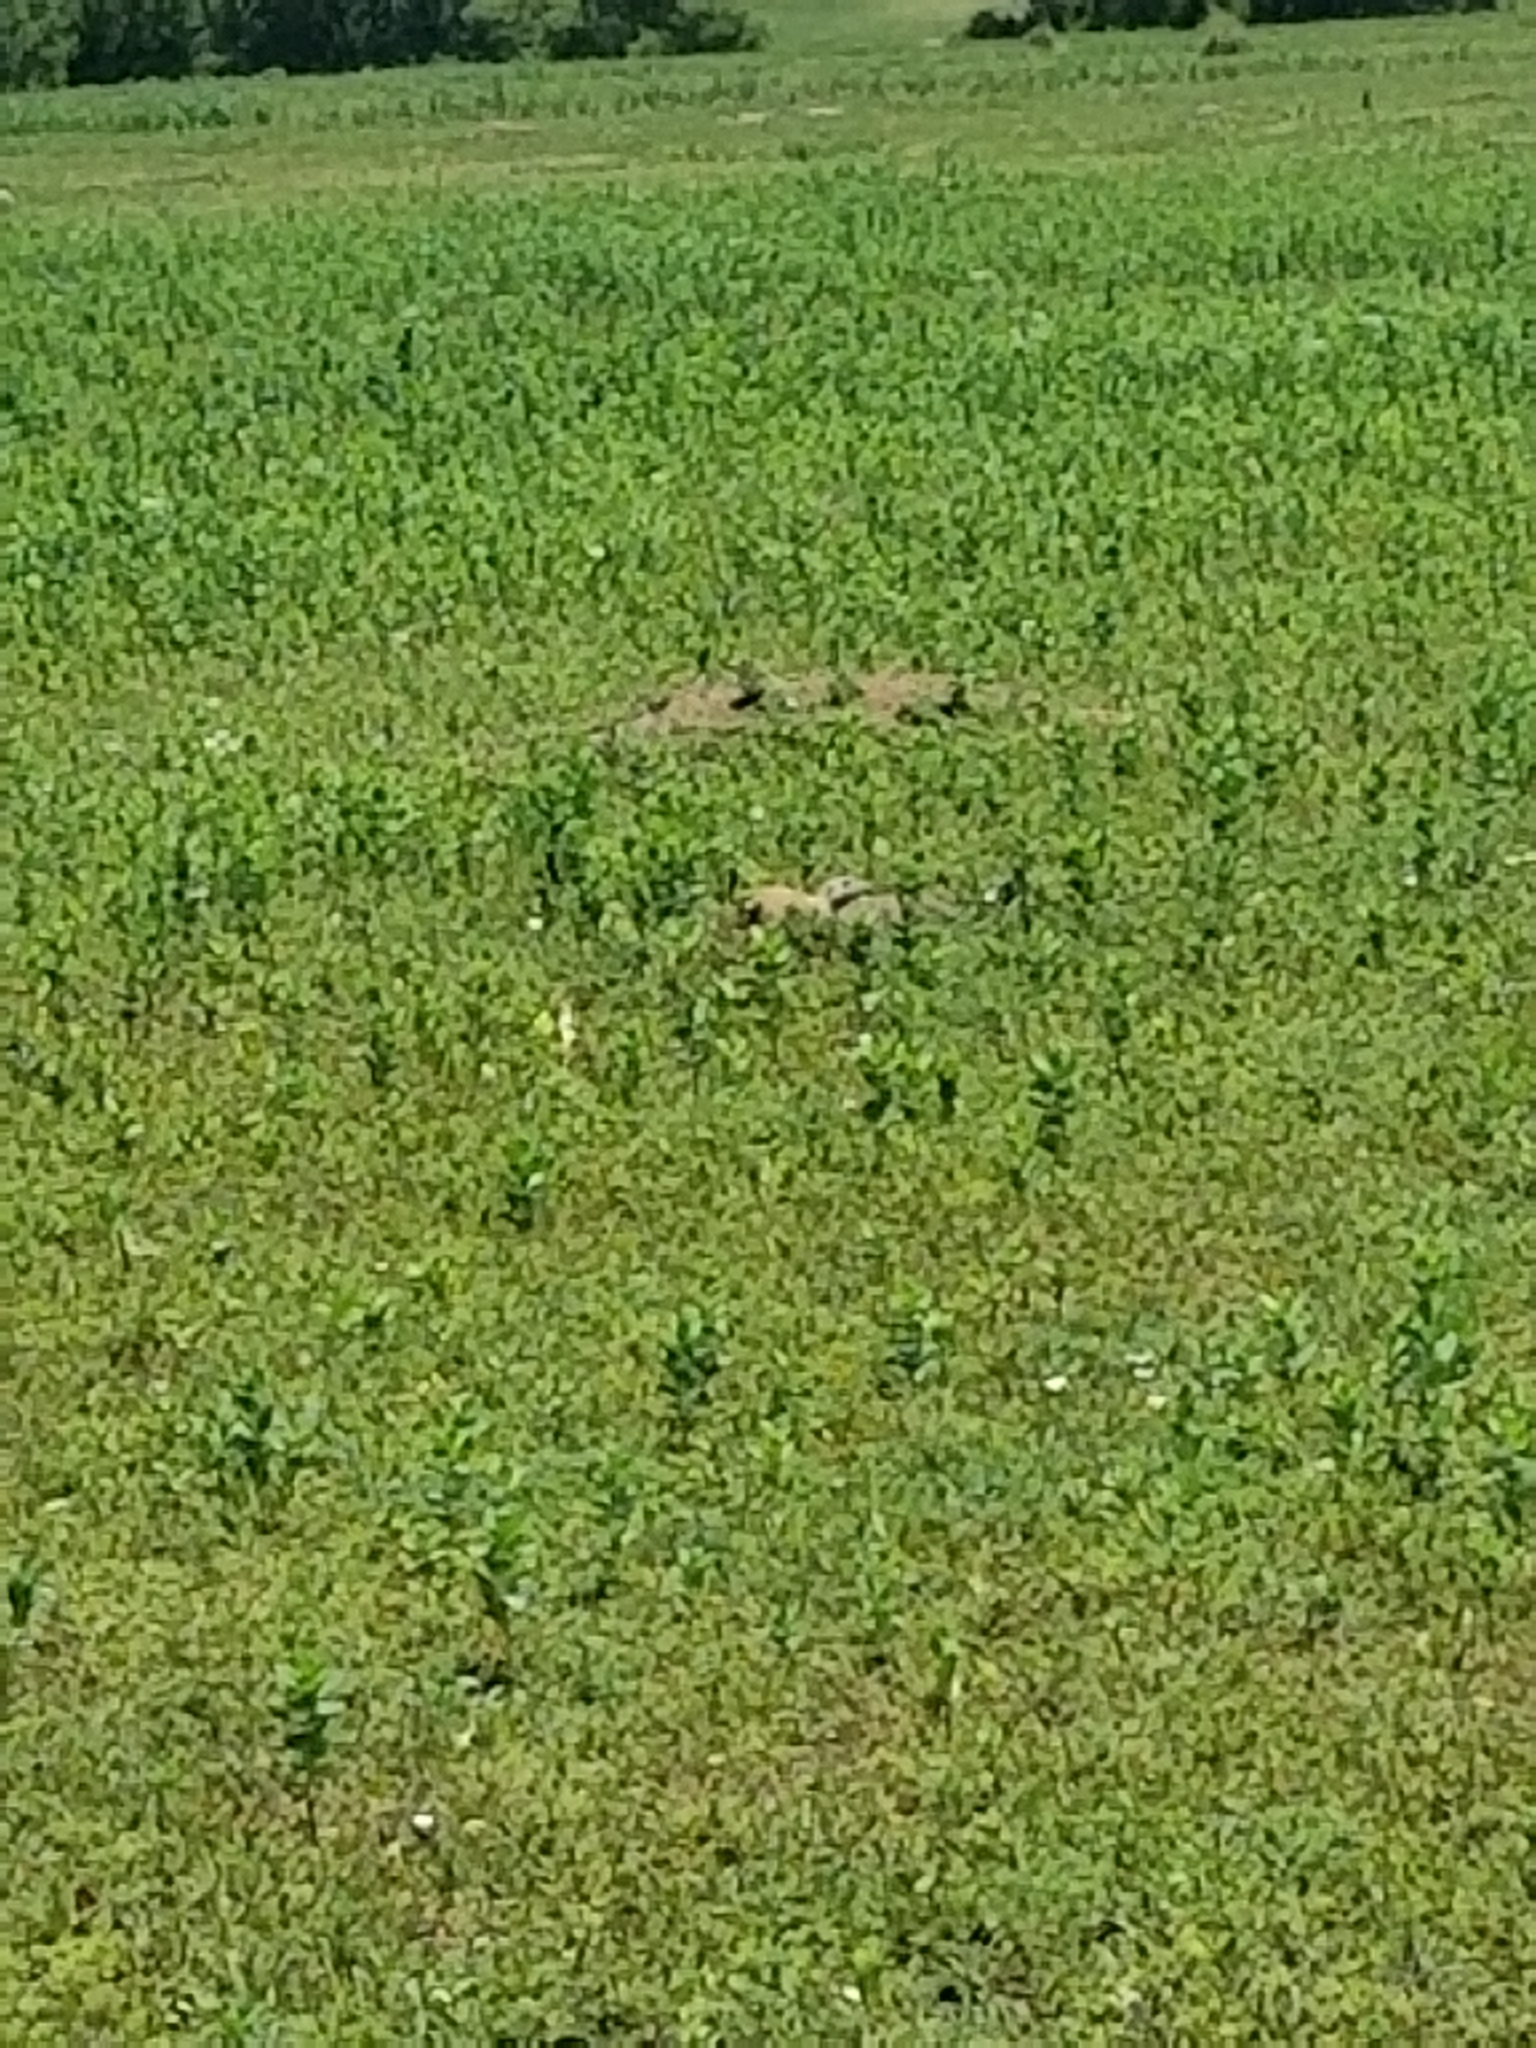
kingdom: Animalia
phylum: Chordata
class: Mammalia
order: Rodentia
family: Sciuridae
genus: Cynomys
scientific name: Cynomys ludovicianus
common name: Black-tailed prairie dog
